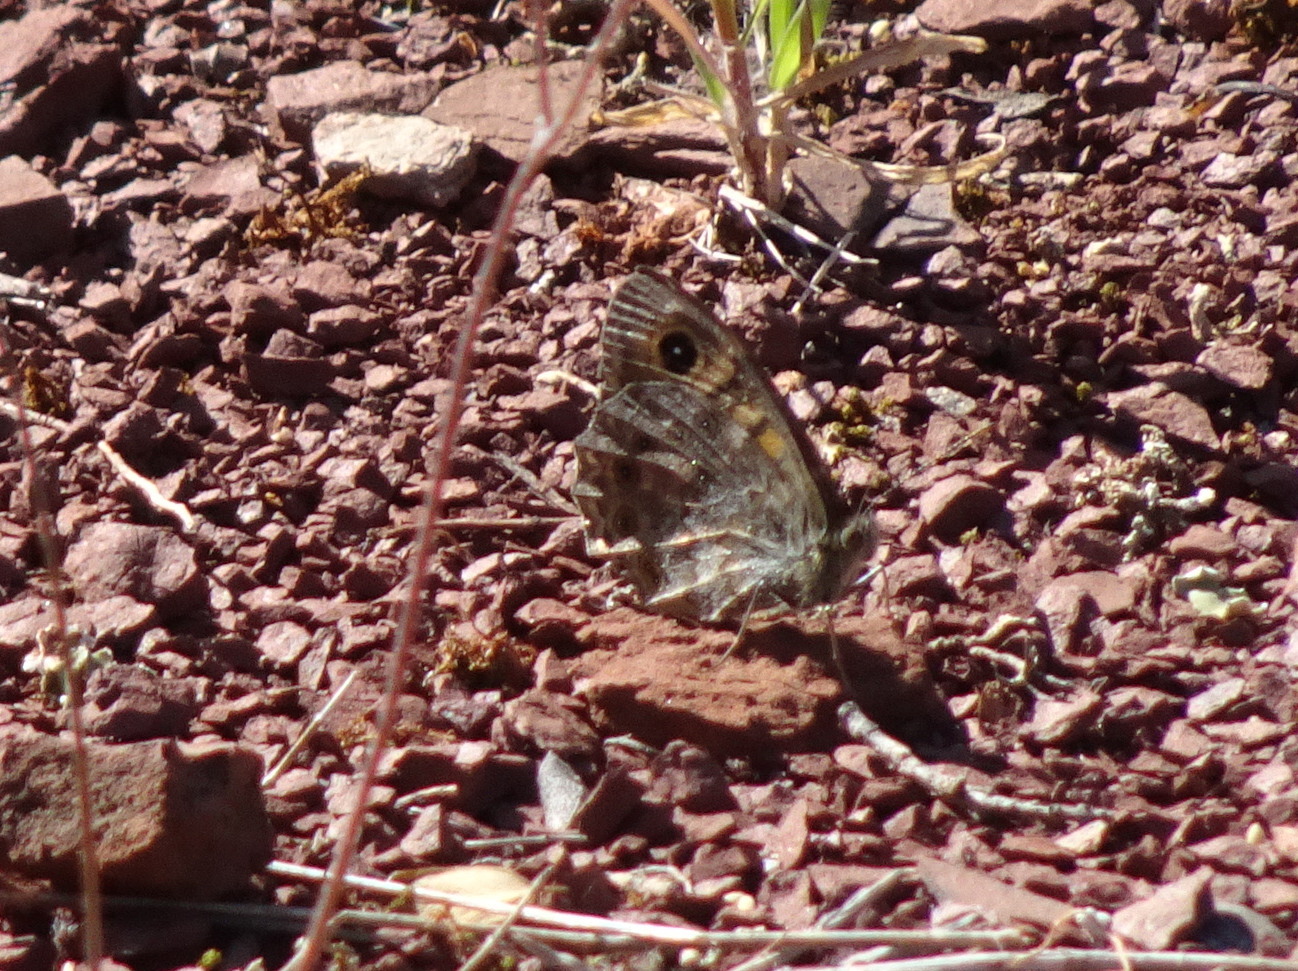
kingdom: Animalia
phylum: Arthropoda
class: Insecta
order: Lepidoptera
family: Nymphalidae
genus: Pararge
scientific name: Pararge Lasiommata megera
